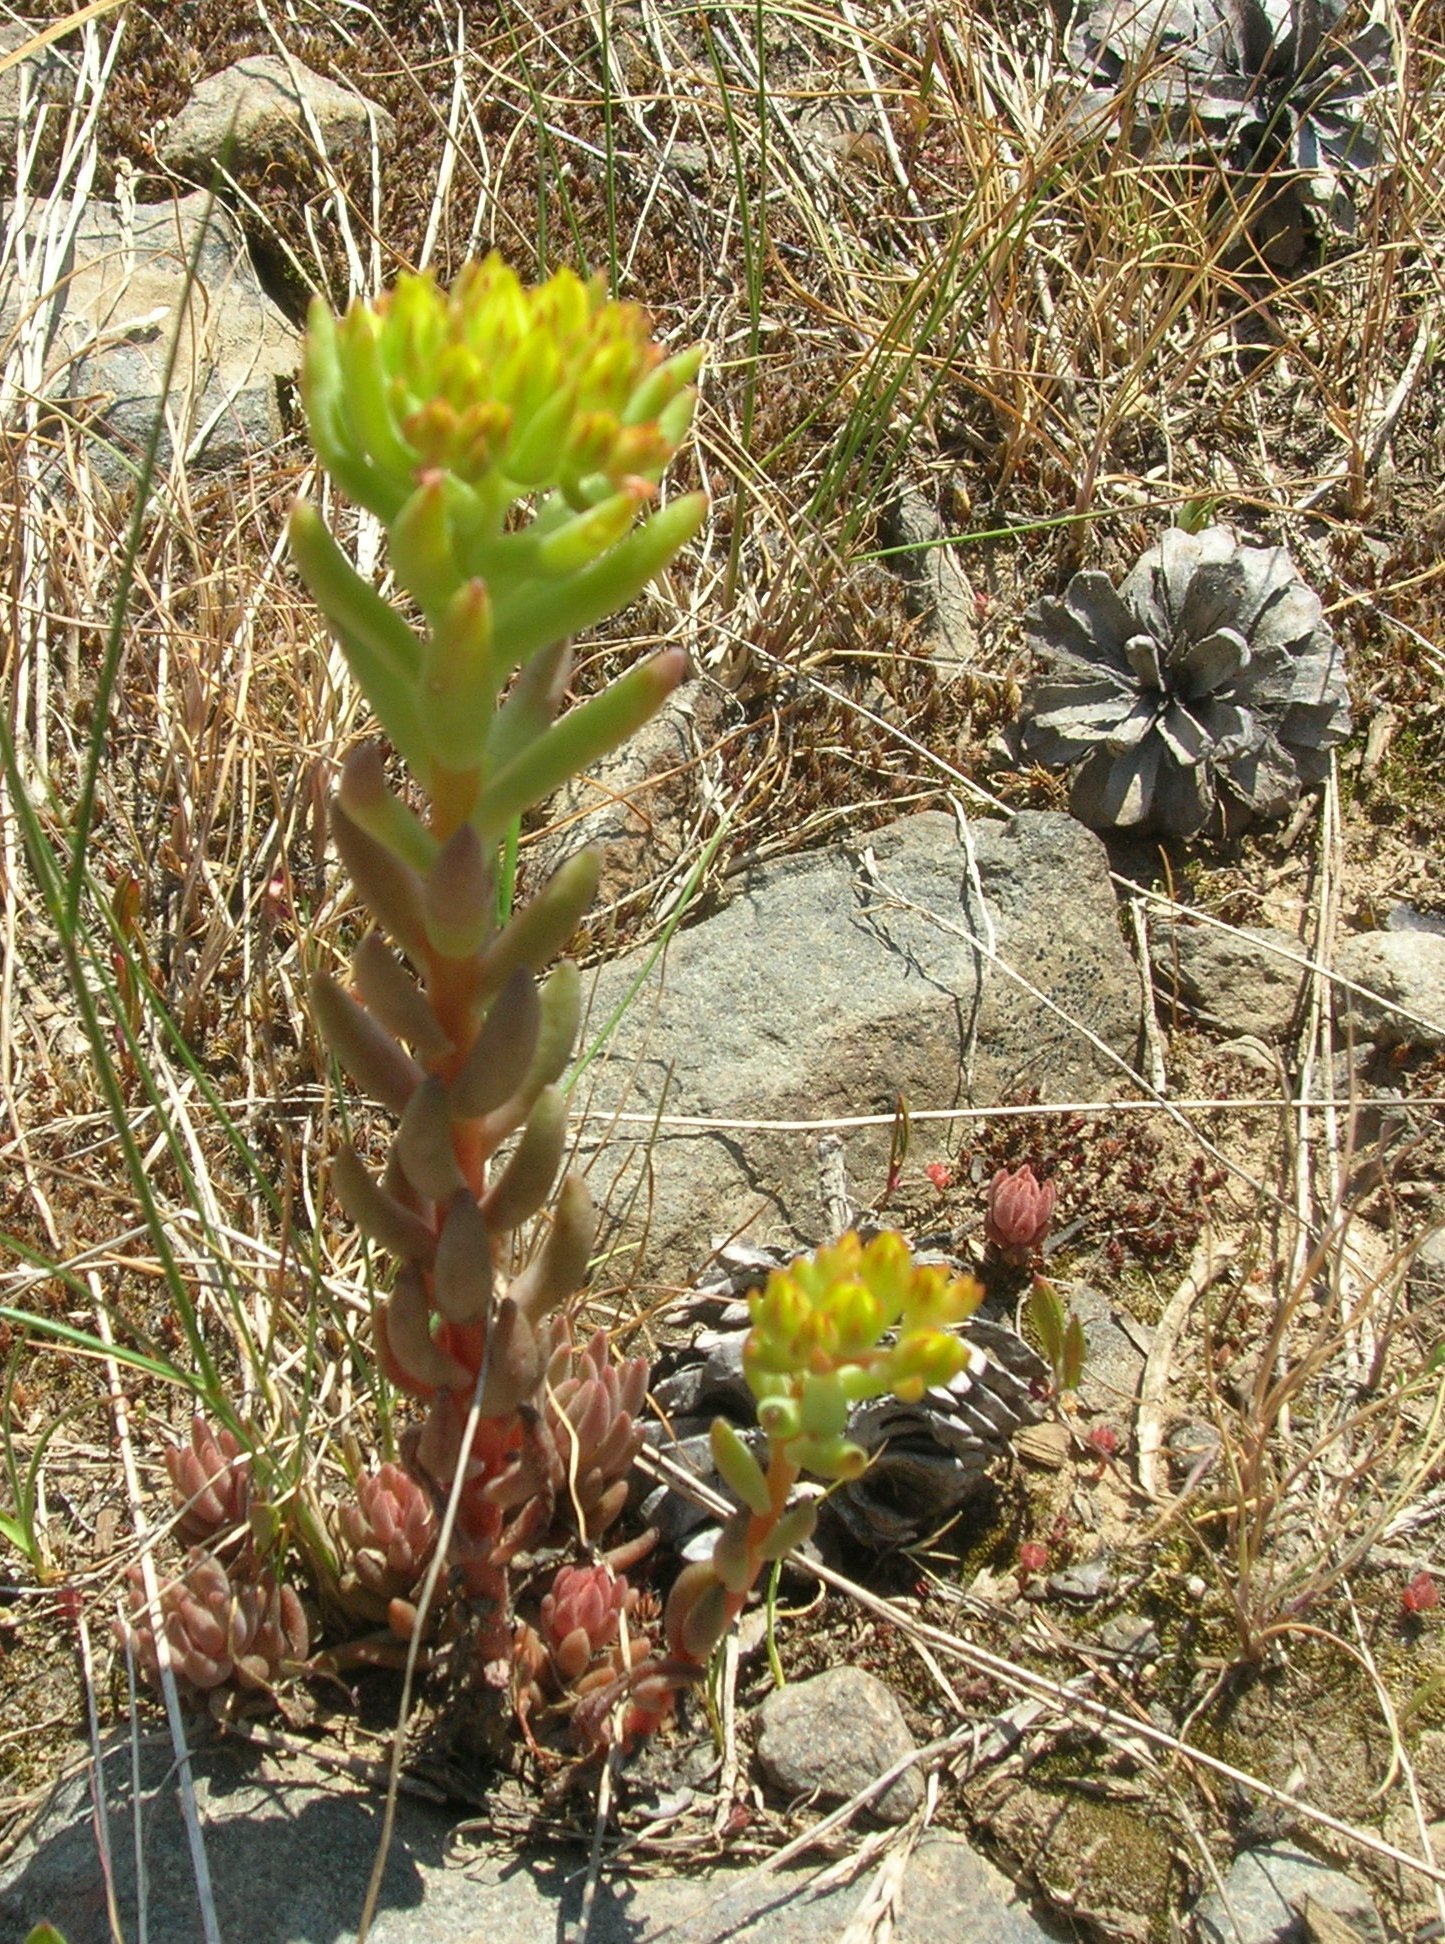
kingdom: Plantae
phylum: Tracheophyta
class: Magnoliopsida
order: Saxifragales
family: Crassulaceae
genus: Sedum
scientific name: Sedum lanceolatum
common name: Common stonecrop
